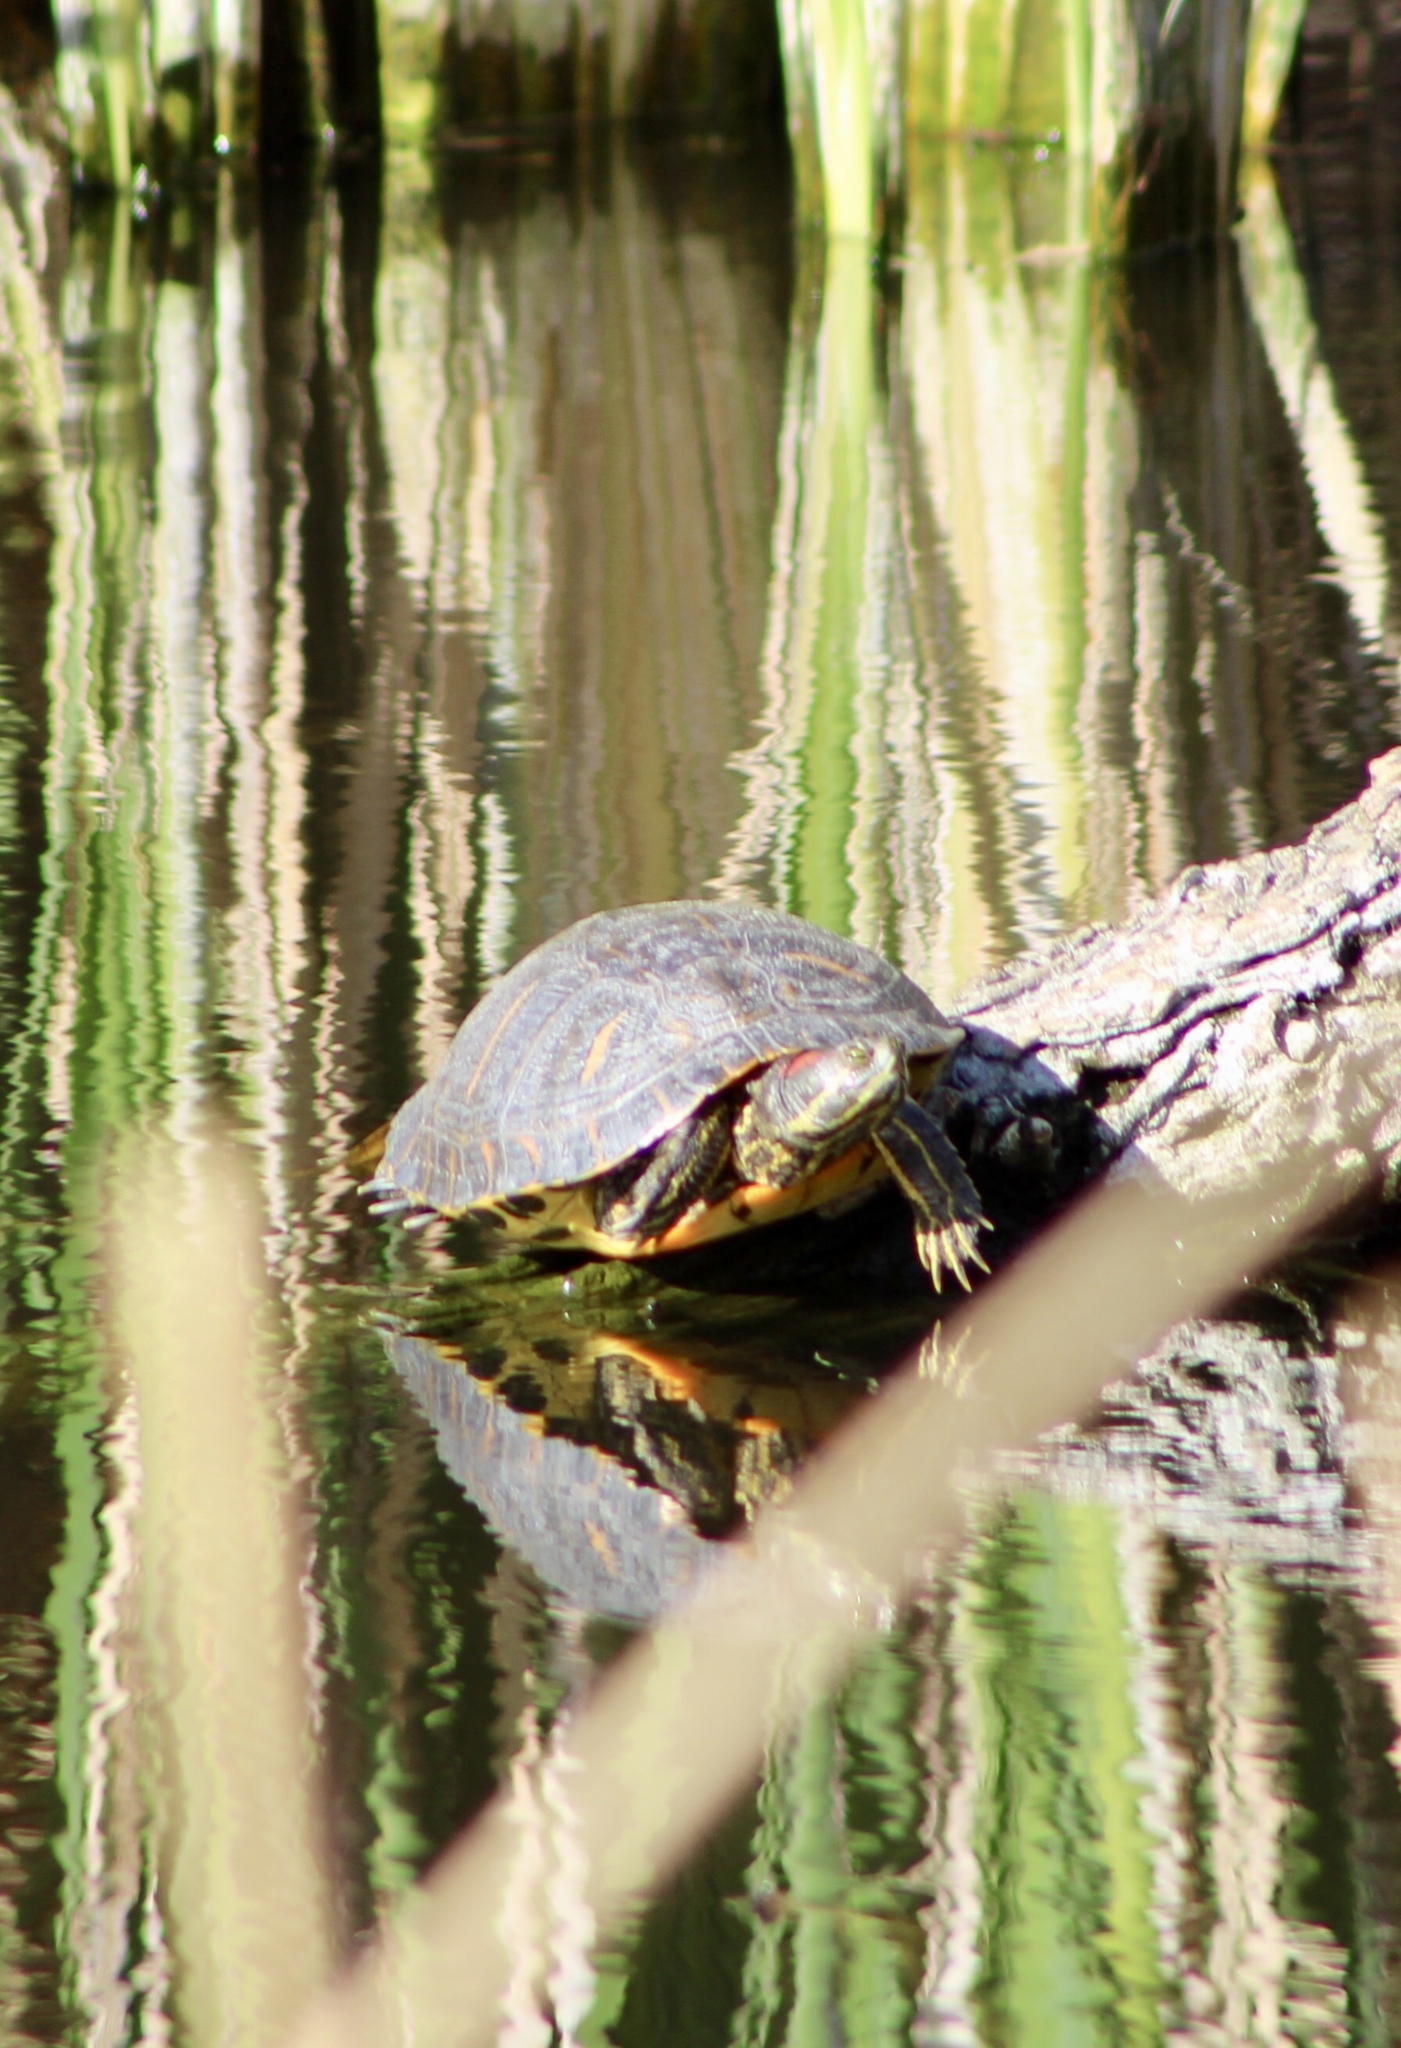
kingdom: Animalia
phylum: Chordata
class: Testudines
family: Emydidae
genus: Trachemys
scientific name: Trachemys scripta
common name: Slider
